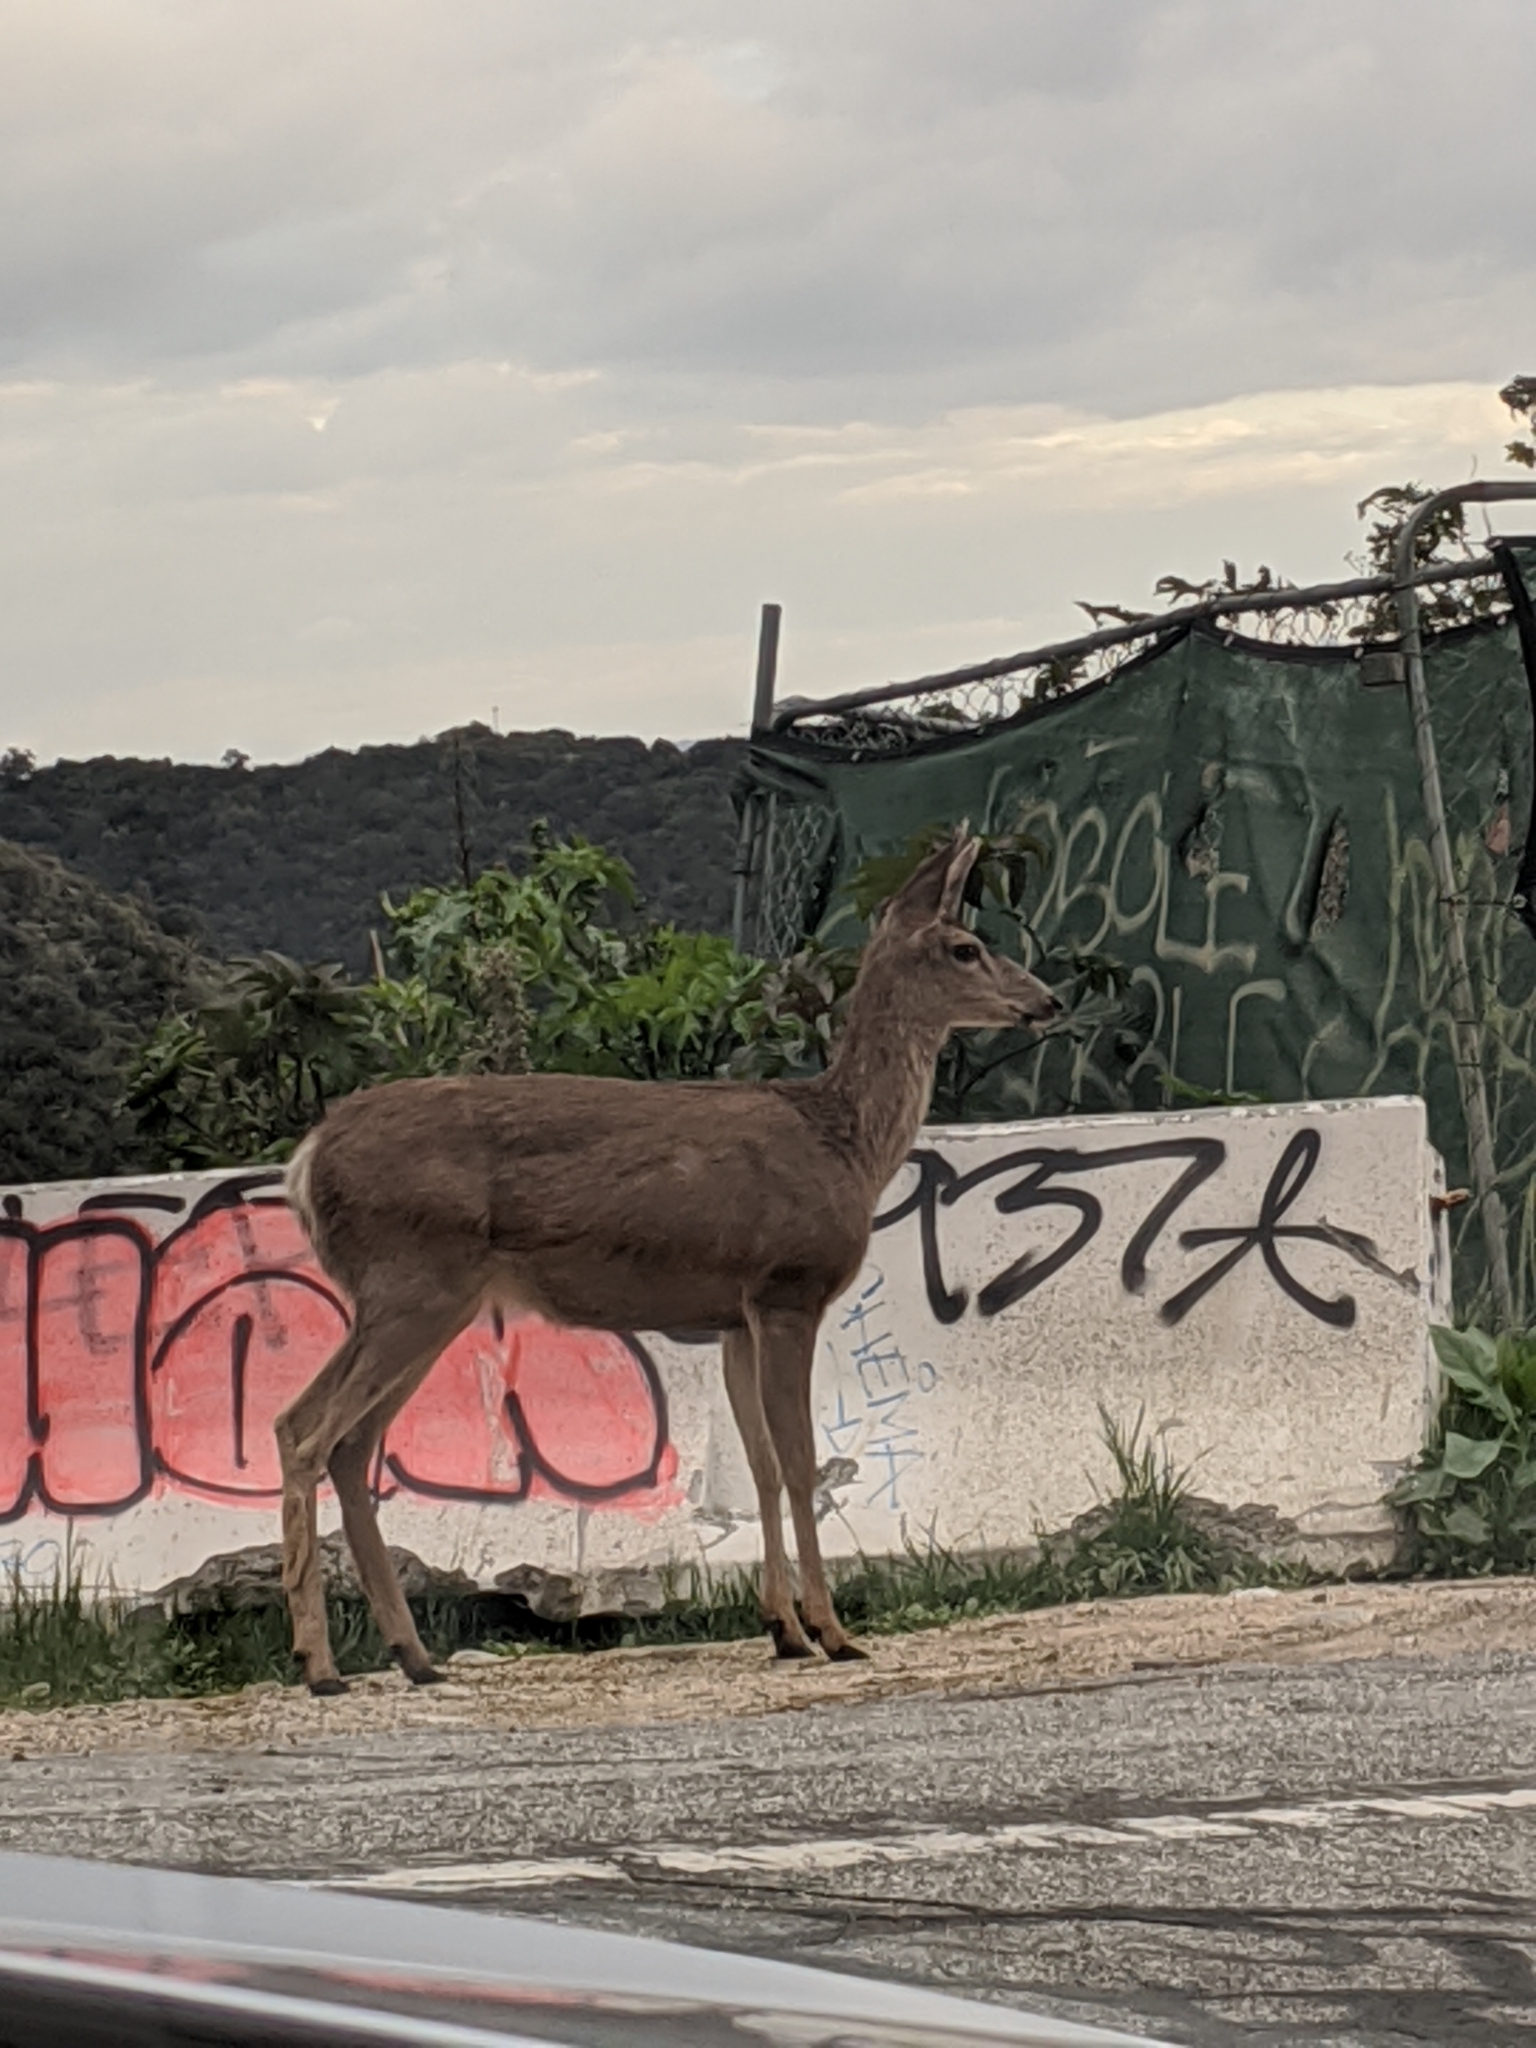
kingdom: Animalia
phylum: Chordata
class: Mammalia
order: Artiodactyla
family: Cervidae
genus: Odocoileus
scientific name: Odocoileus hemionus
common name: Mule deer
